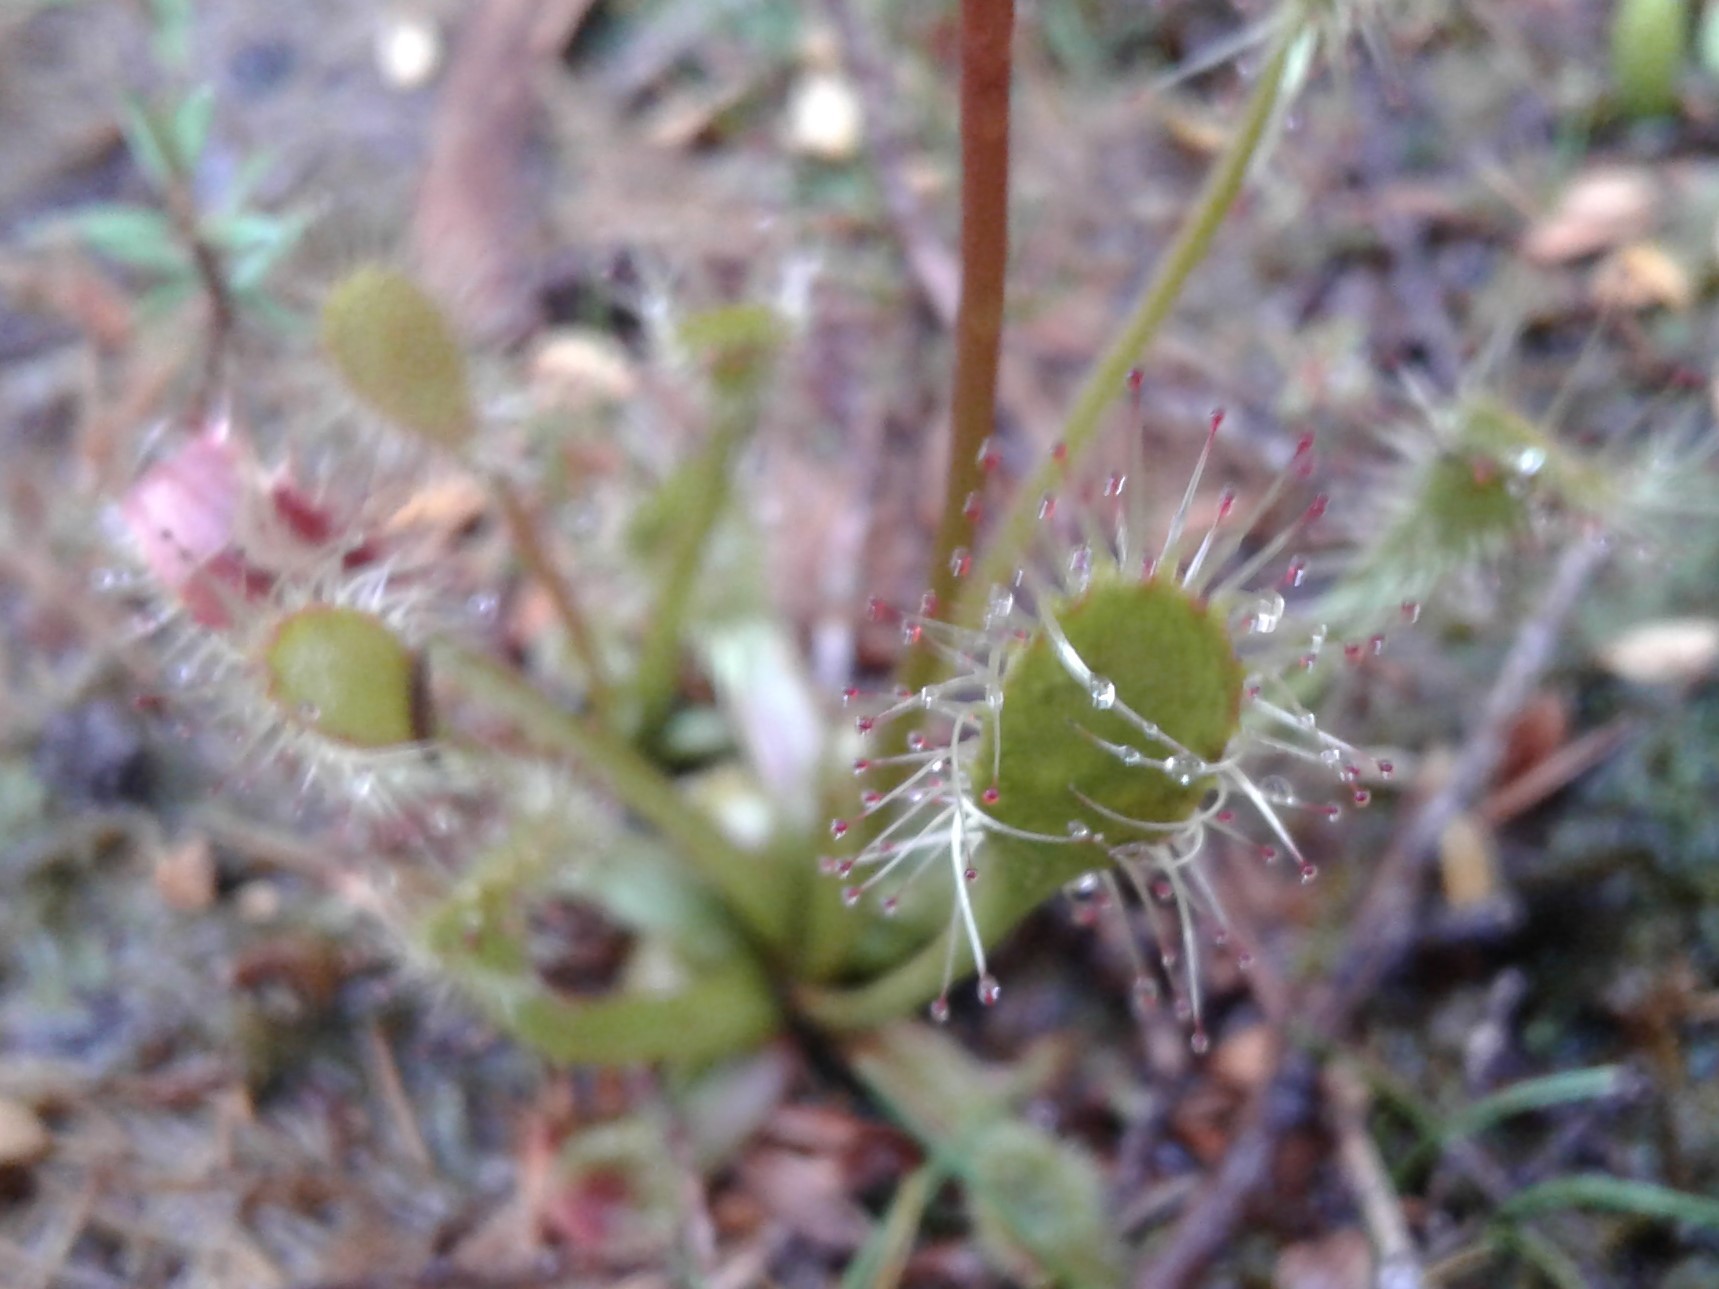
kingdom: Plantae
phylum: Tracheophyta
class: Magnoliopsida
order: Caryophyllales
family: Droseraceae
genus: Drosera
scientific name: Drosera stenopetala
